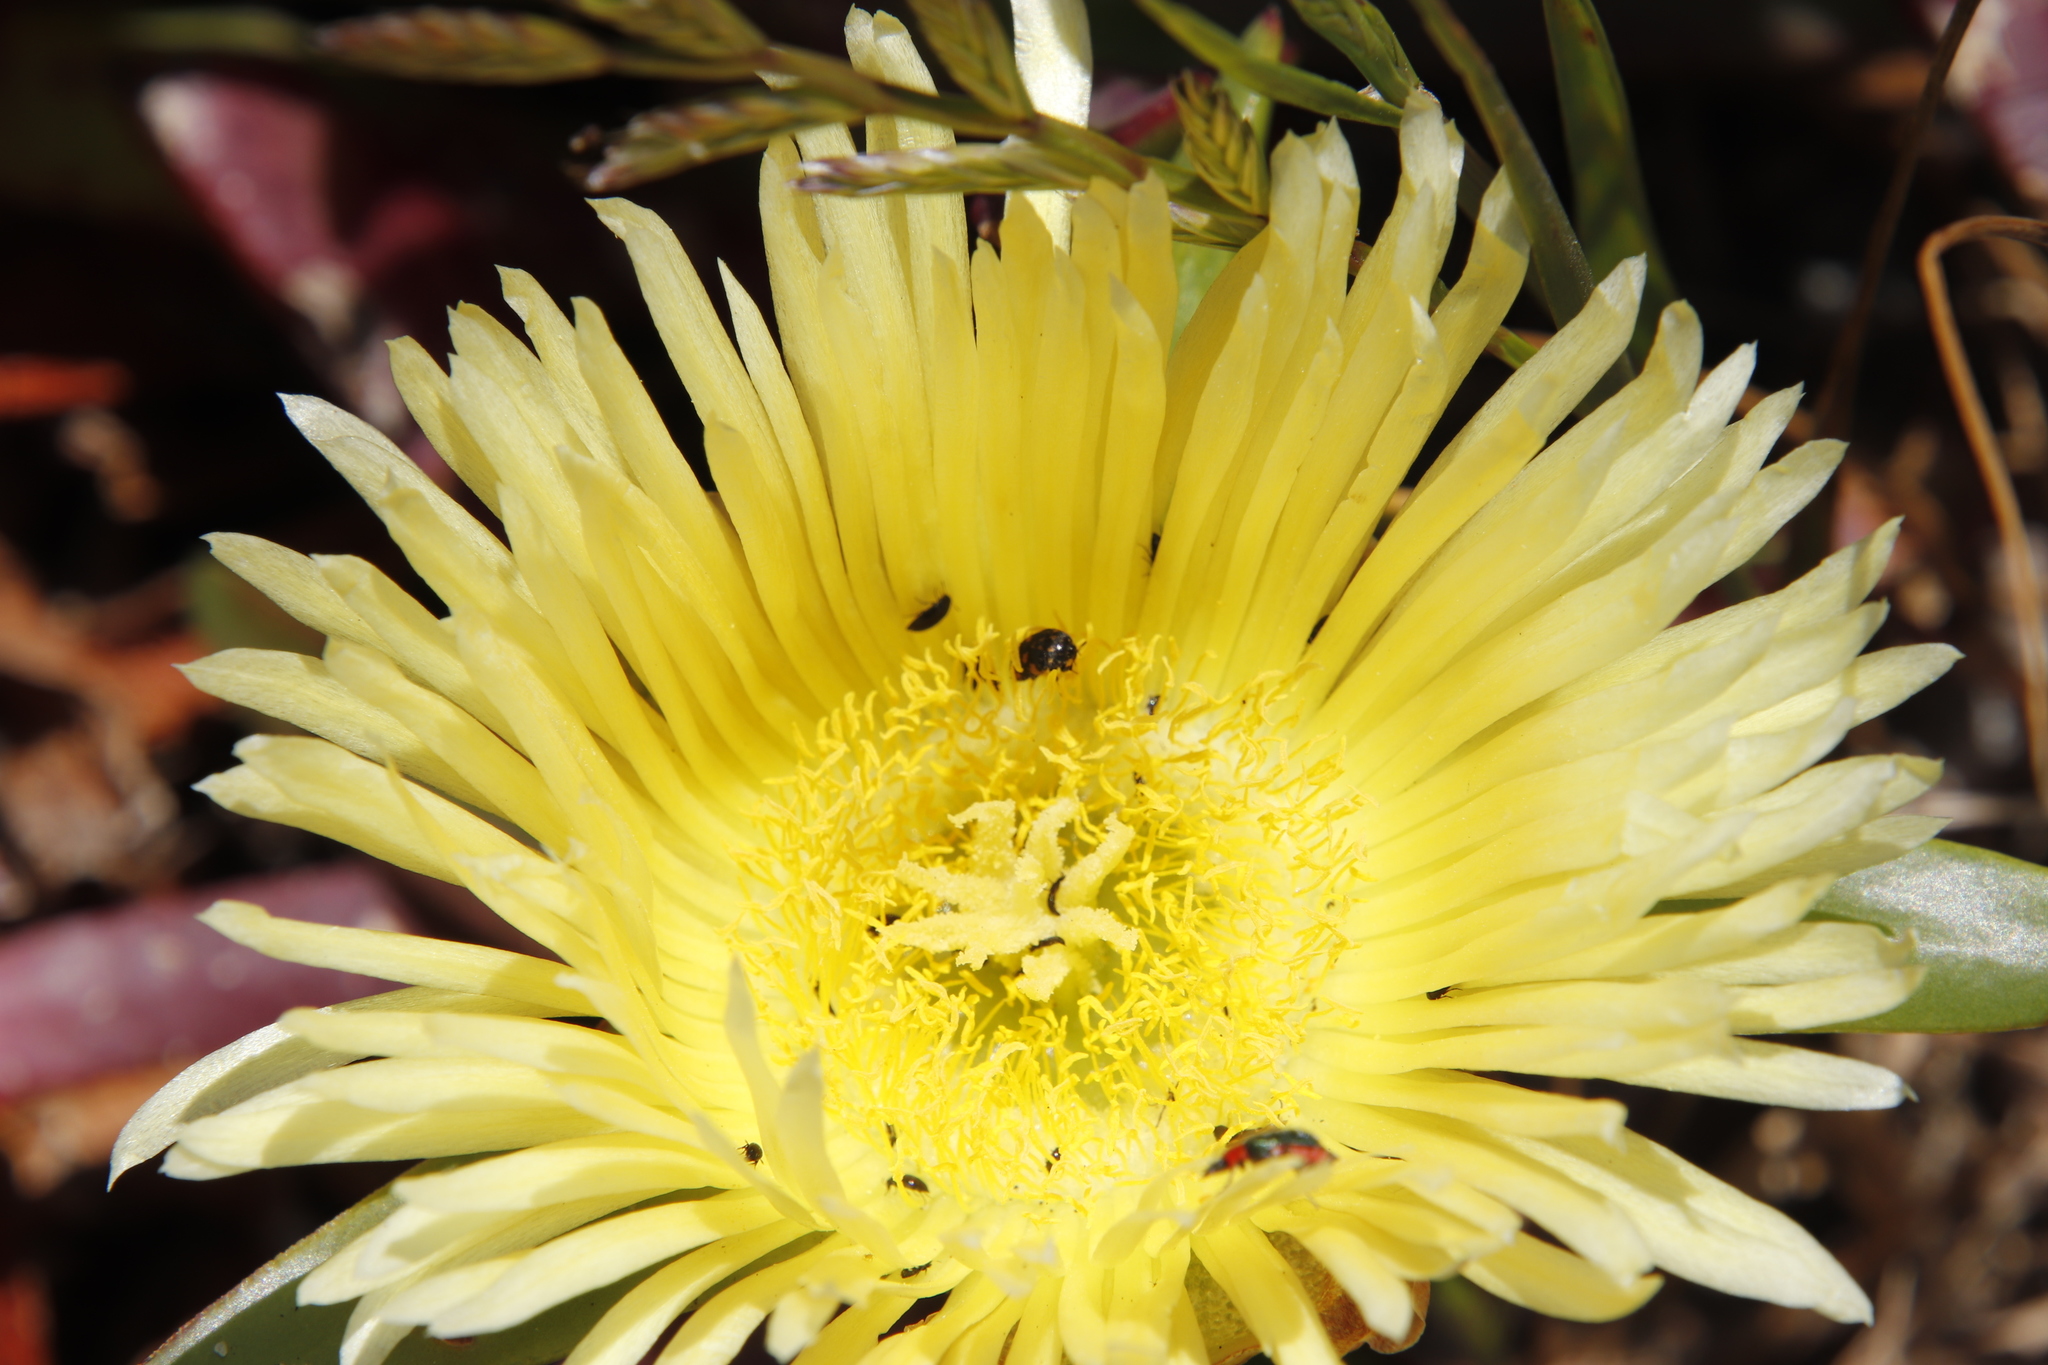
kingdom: Plantae
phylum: Tracheophyta
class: Magnoliopsida
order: Caryophyllales
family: Aizoaceae
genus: Carpobrotus
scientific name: Carpobrotus edulis
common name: Hottentot-fig
